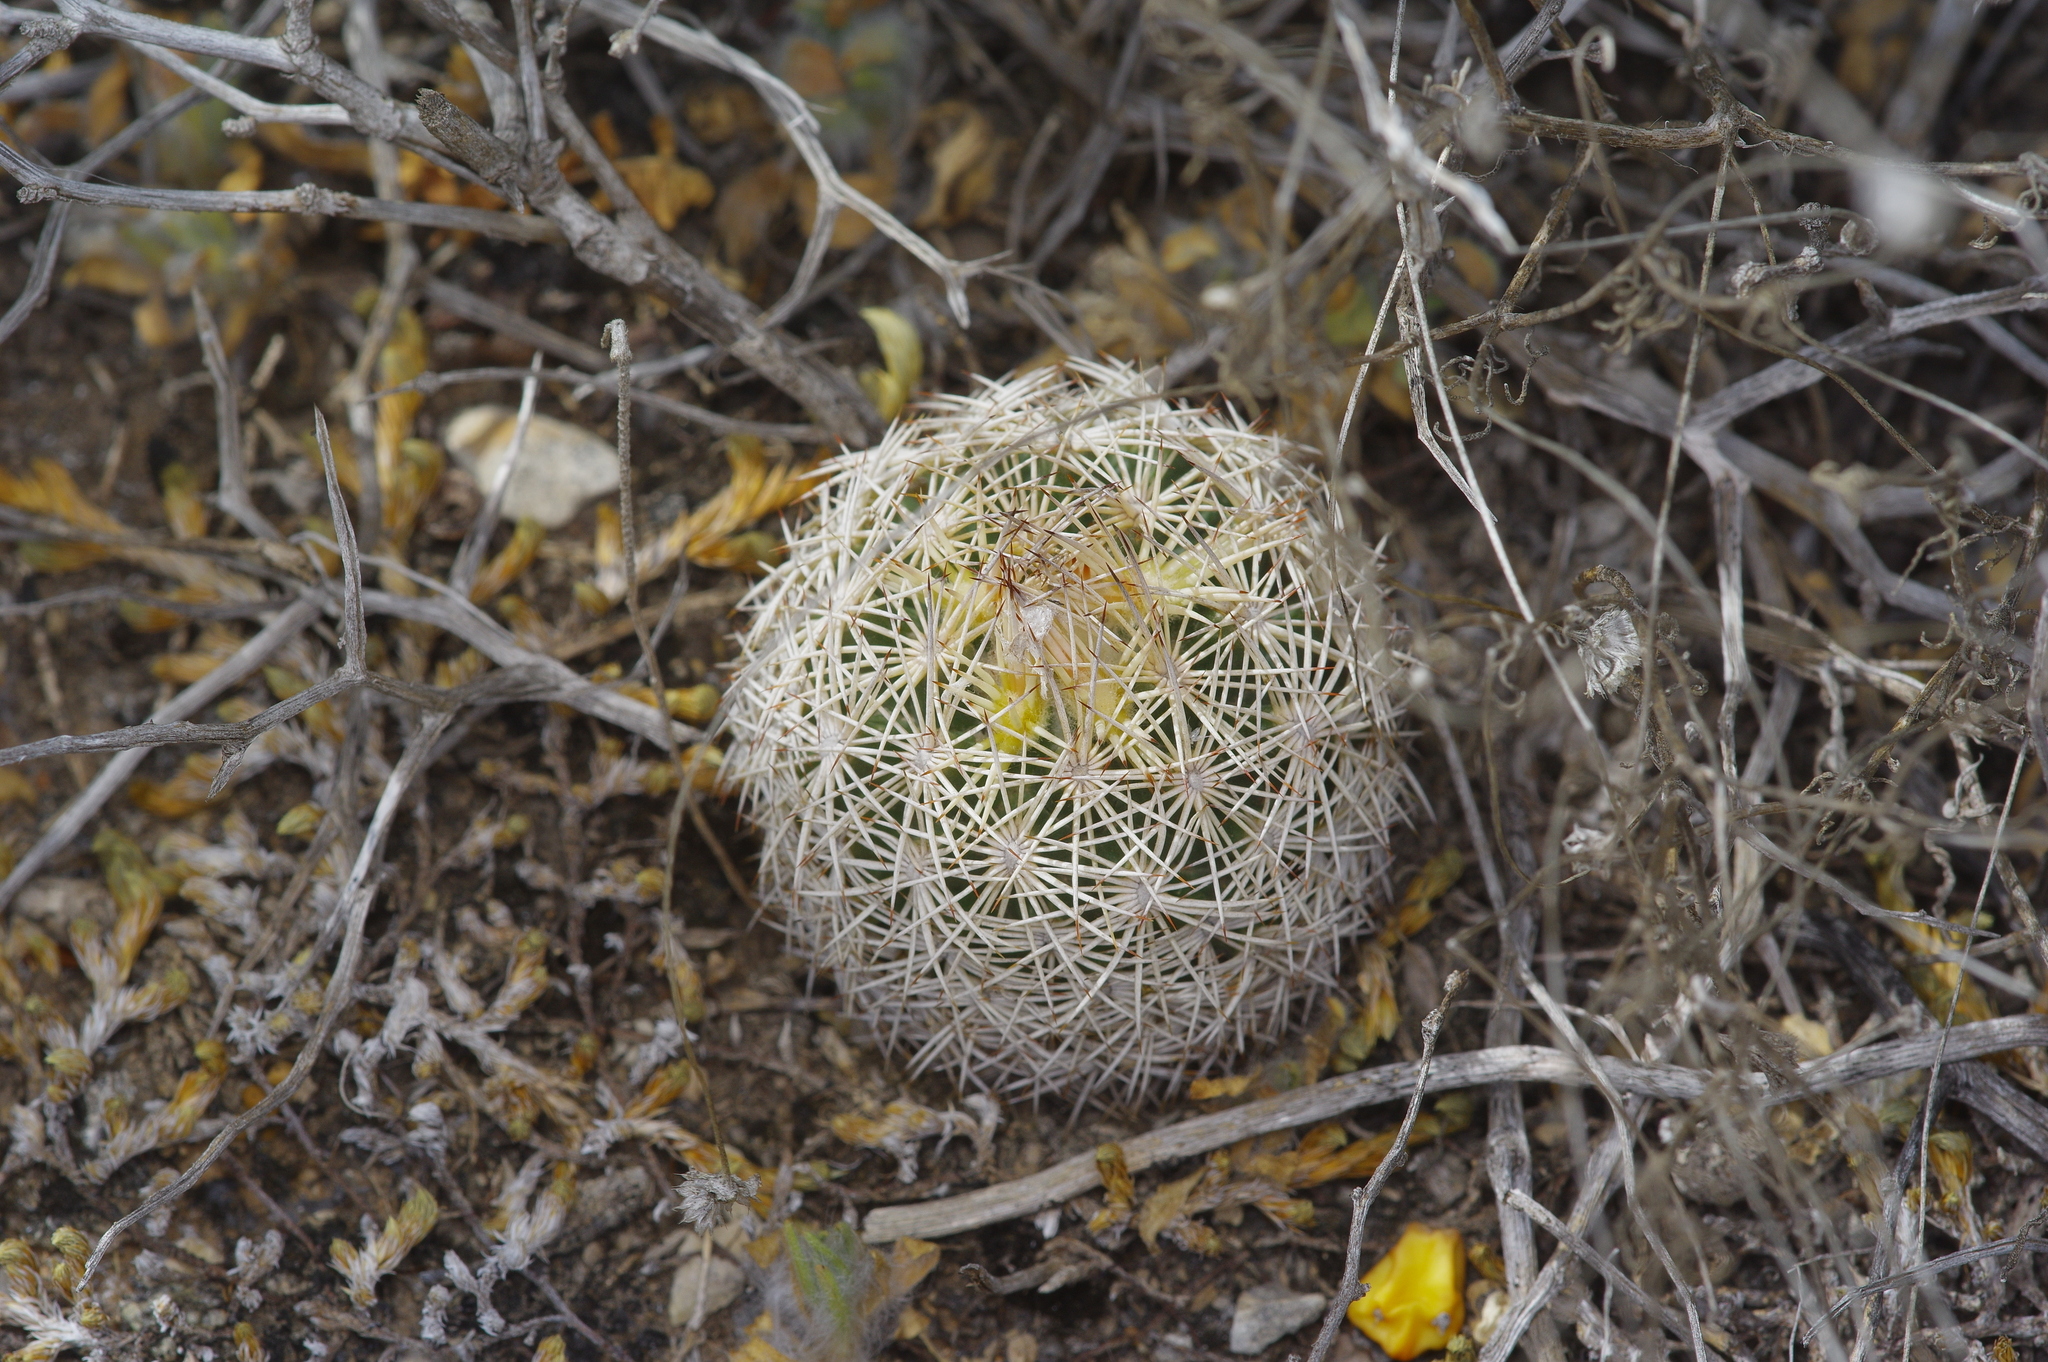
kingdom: Plantae
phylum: Tracheophyta
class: Magnoliopsida
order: Caryophyllales
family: Cactaceae
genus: Coryphantha
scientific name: Coryphantha echinus
